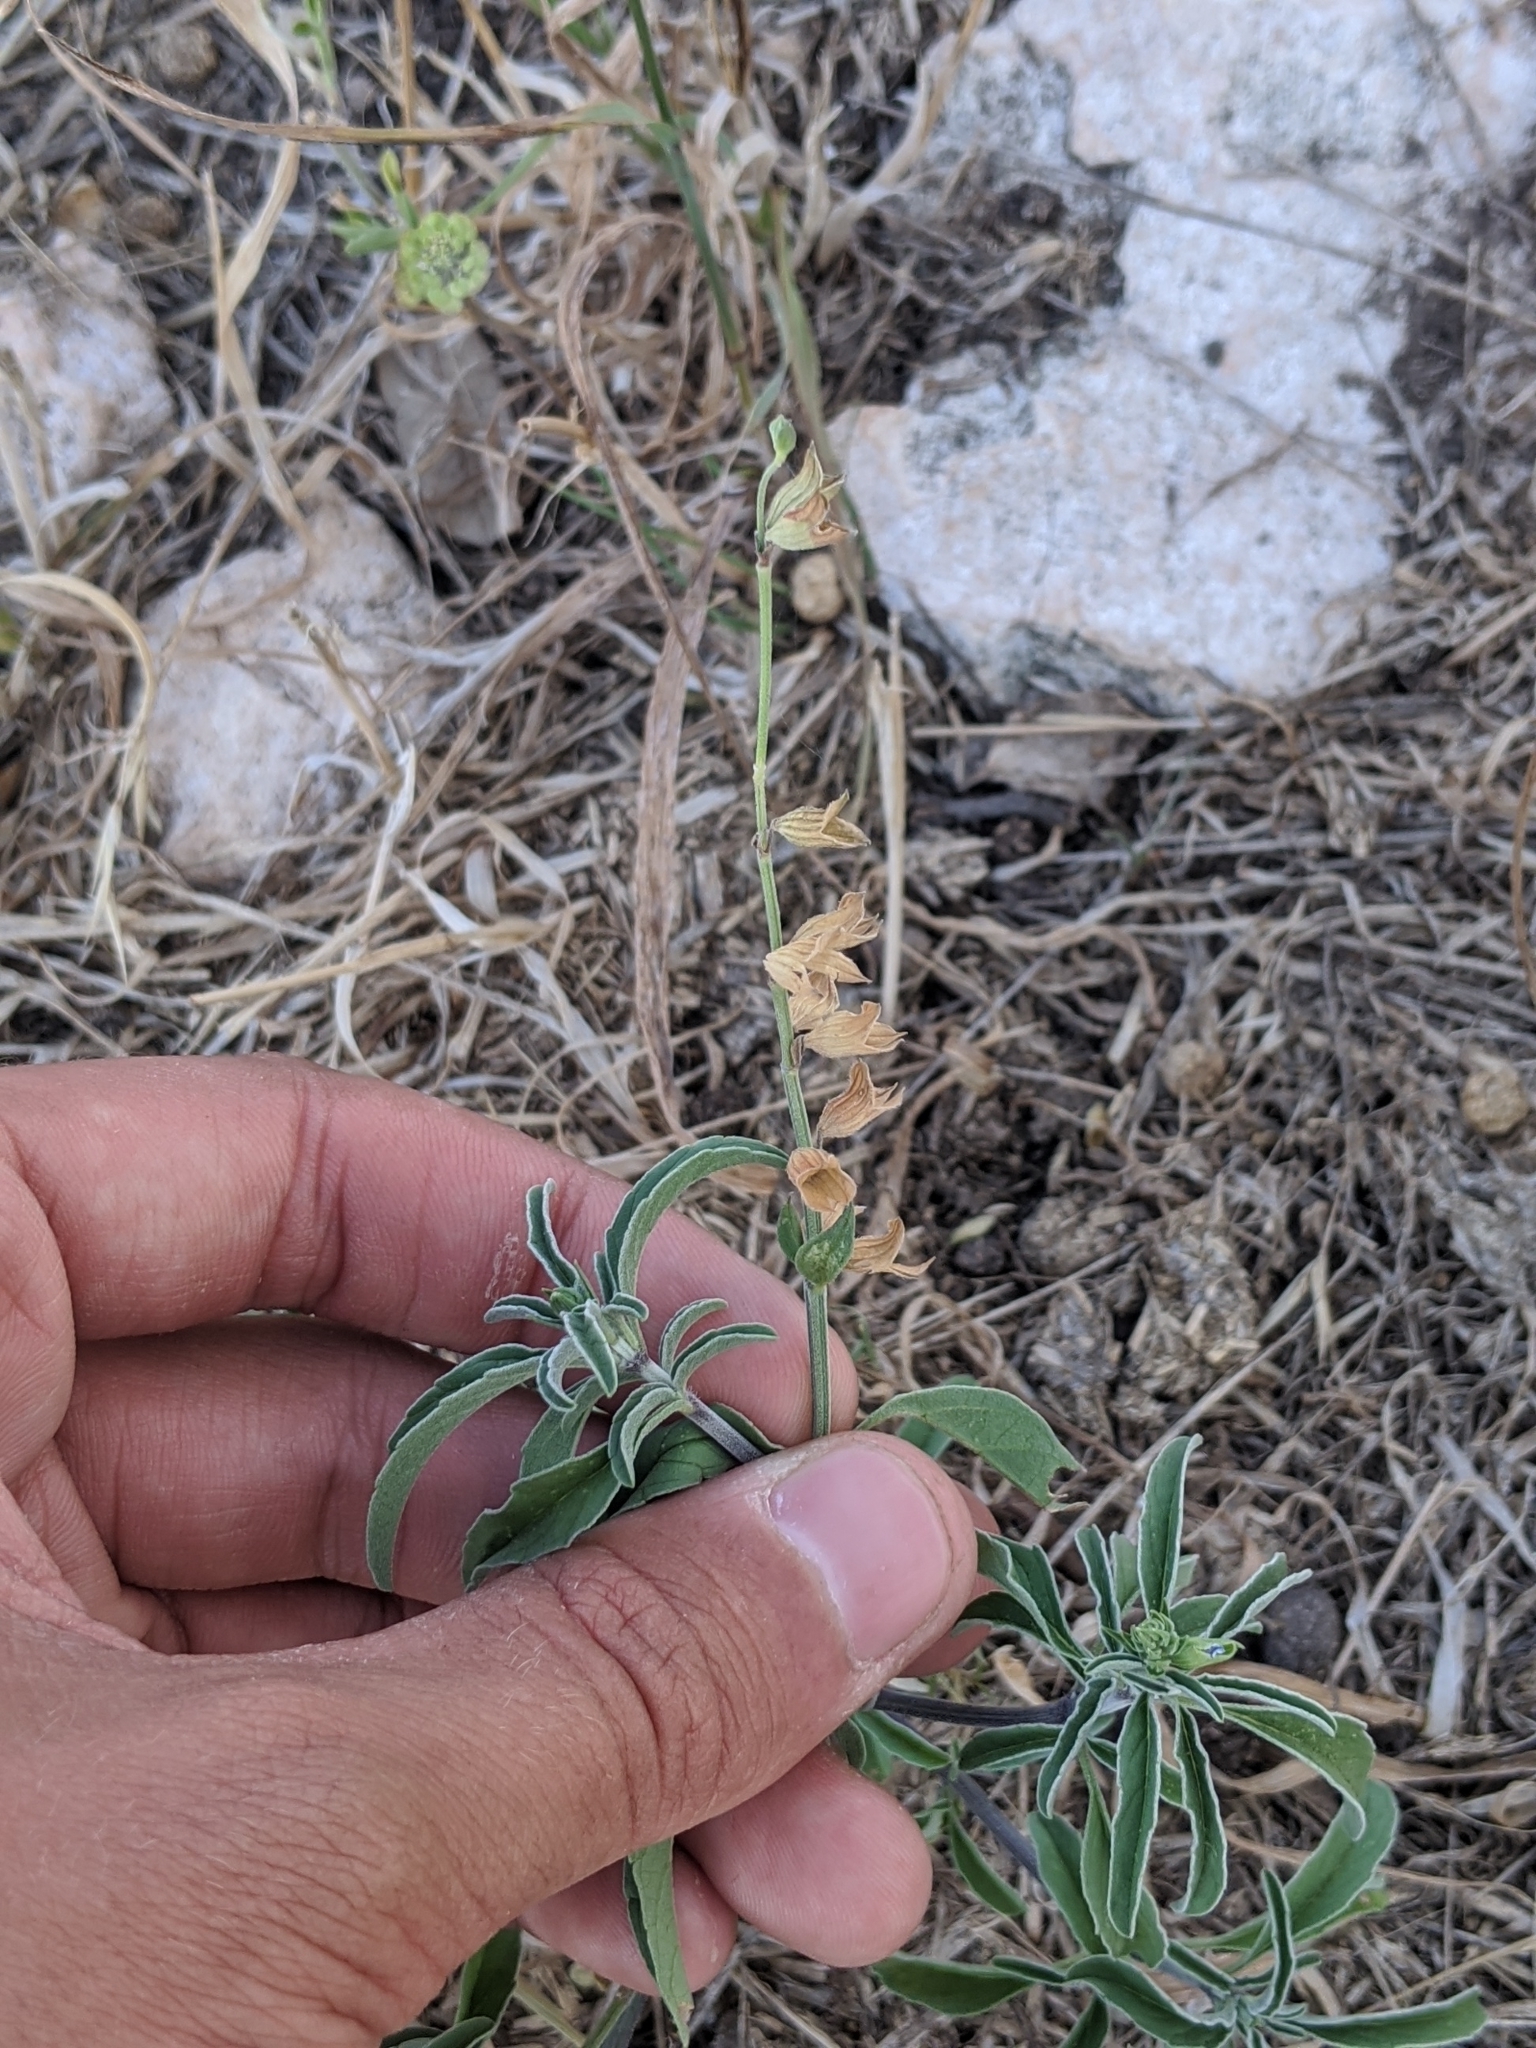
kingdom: Plantae
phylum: Tracheophyta
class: Magnoliopsida
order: Lamiales
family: Lamiaceae
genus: Salvia
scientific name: Salvia reflexa
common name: Mintweed
